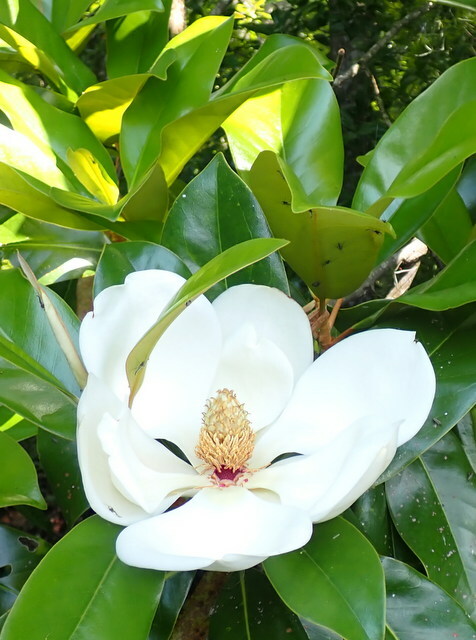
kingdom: Plantae
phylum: Tracheophyta
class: Magnoliopsida
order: Magnoliales
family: Magnoliaceae
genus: Magnolia
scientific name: Magnolia grandiflora
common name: Southern magnolia
